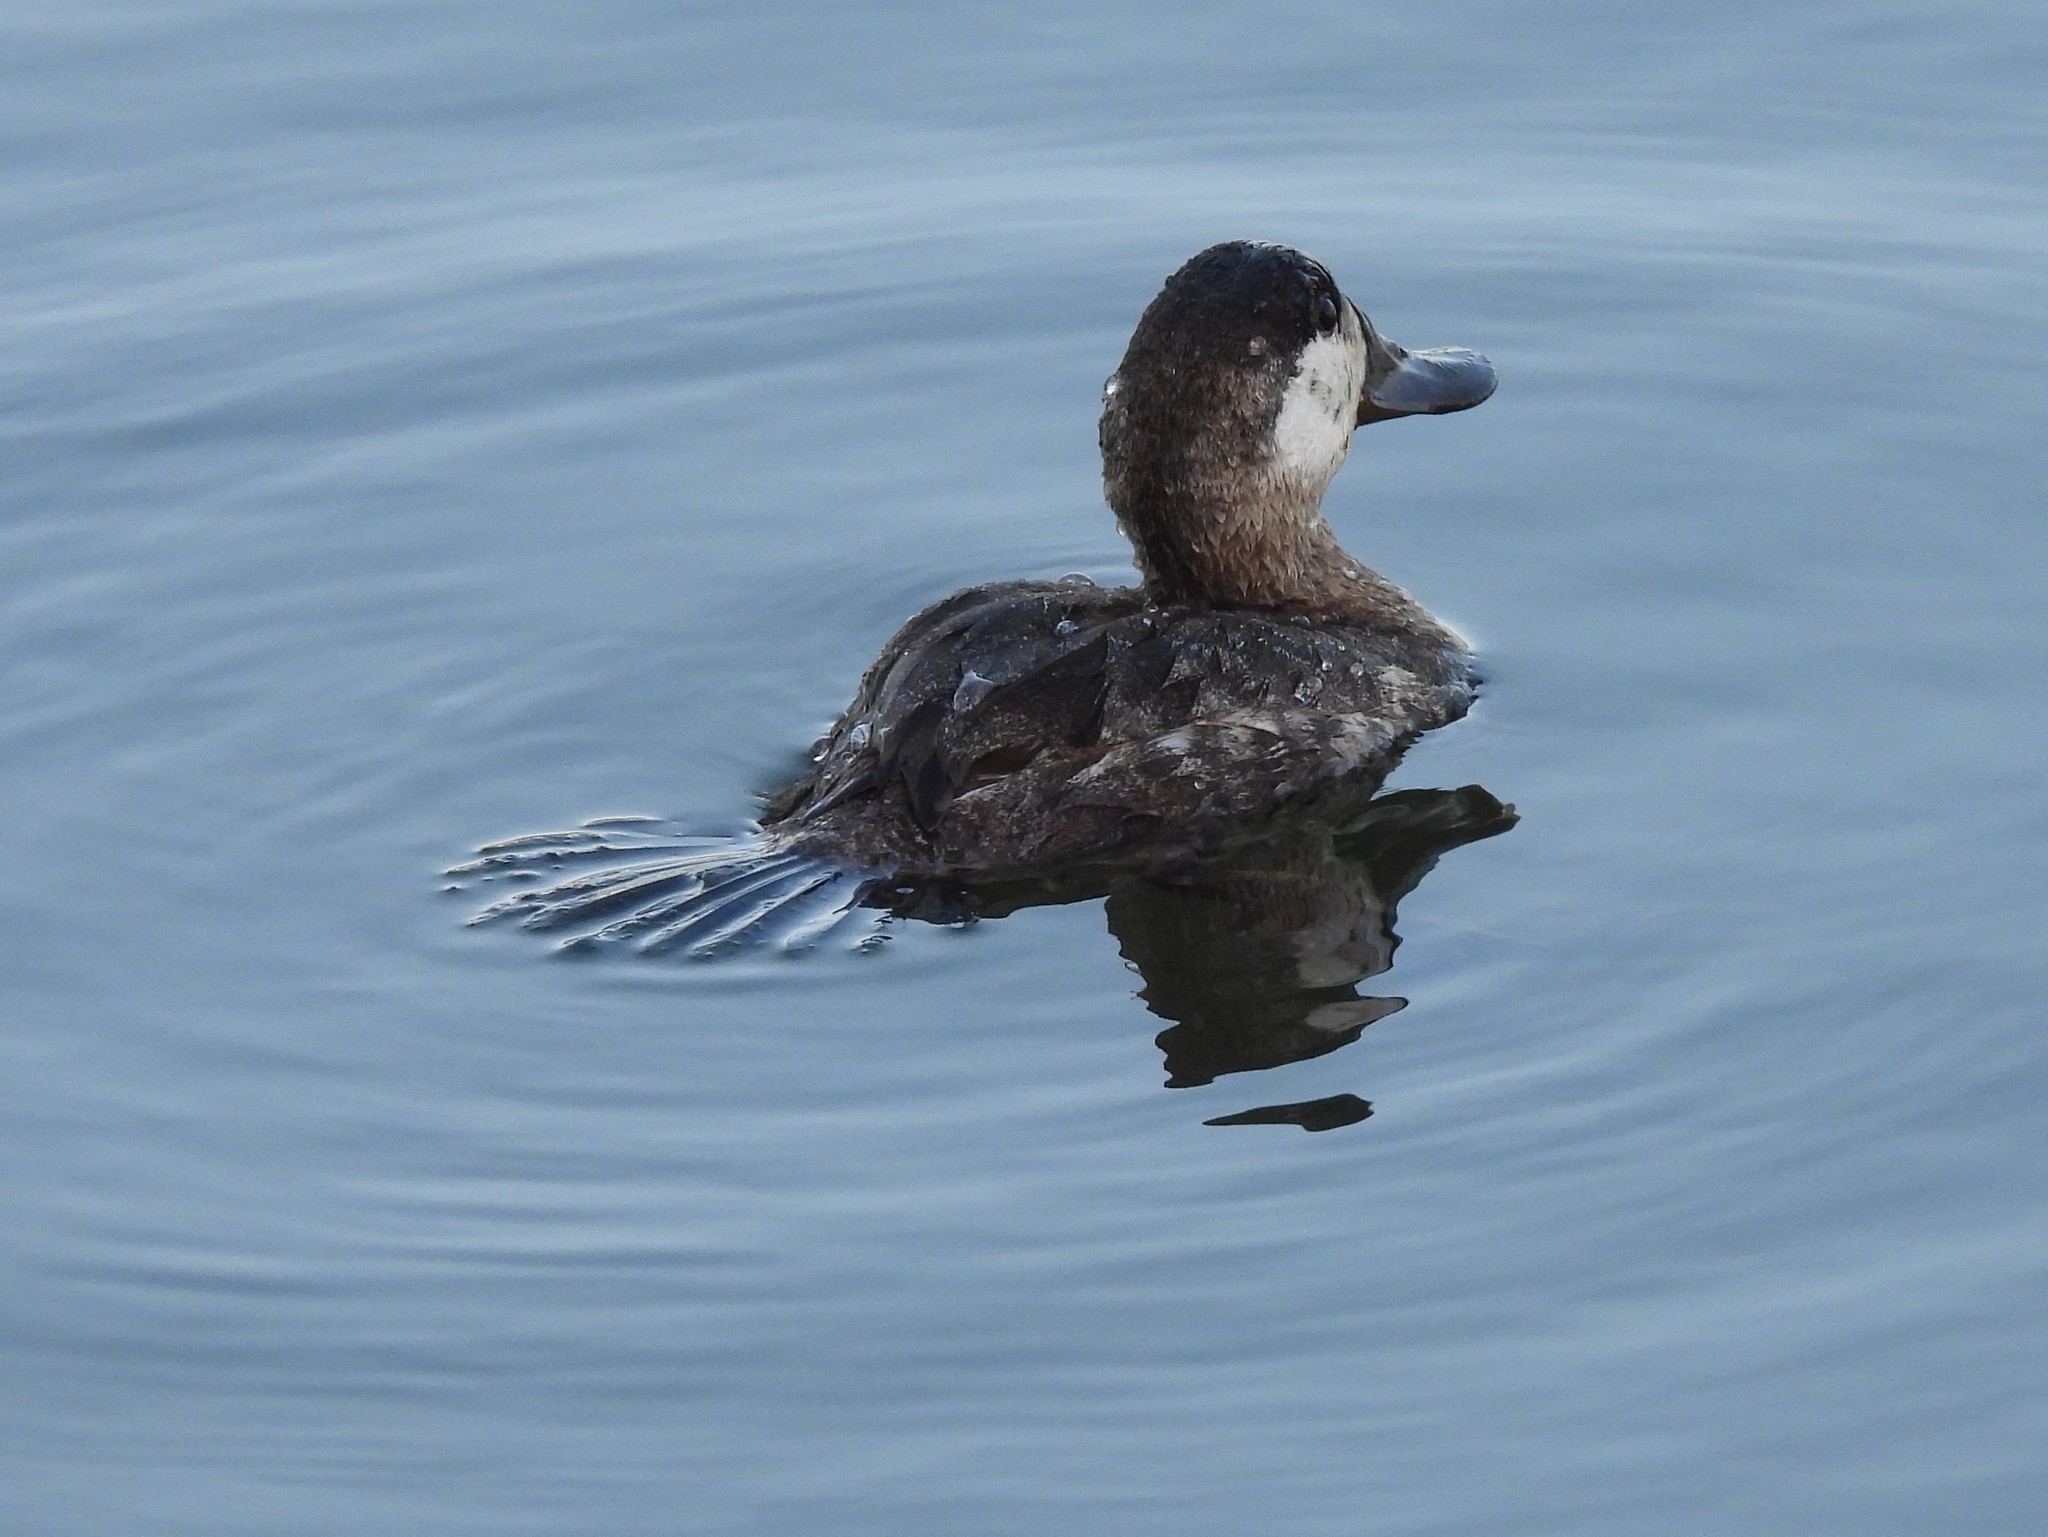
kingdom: Animalia
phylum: Chordata
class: Aves
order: Anseriformes
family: Anatidae
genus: Oxyura
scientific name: Oxyura jamaicensis
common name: Ruddy duck
